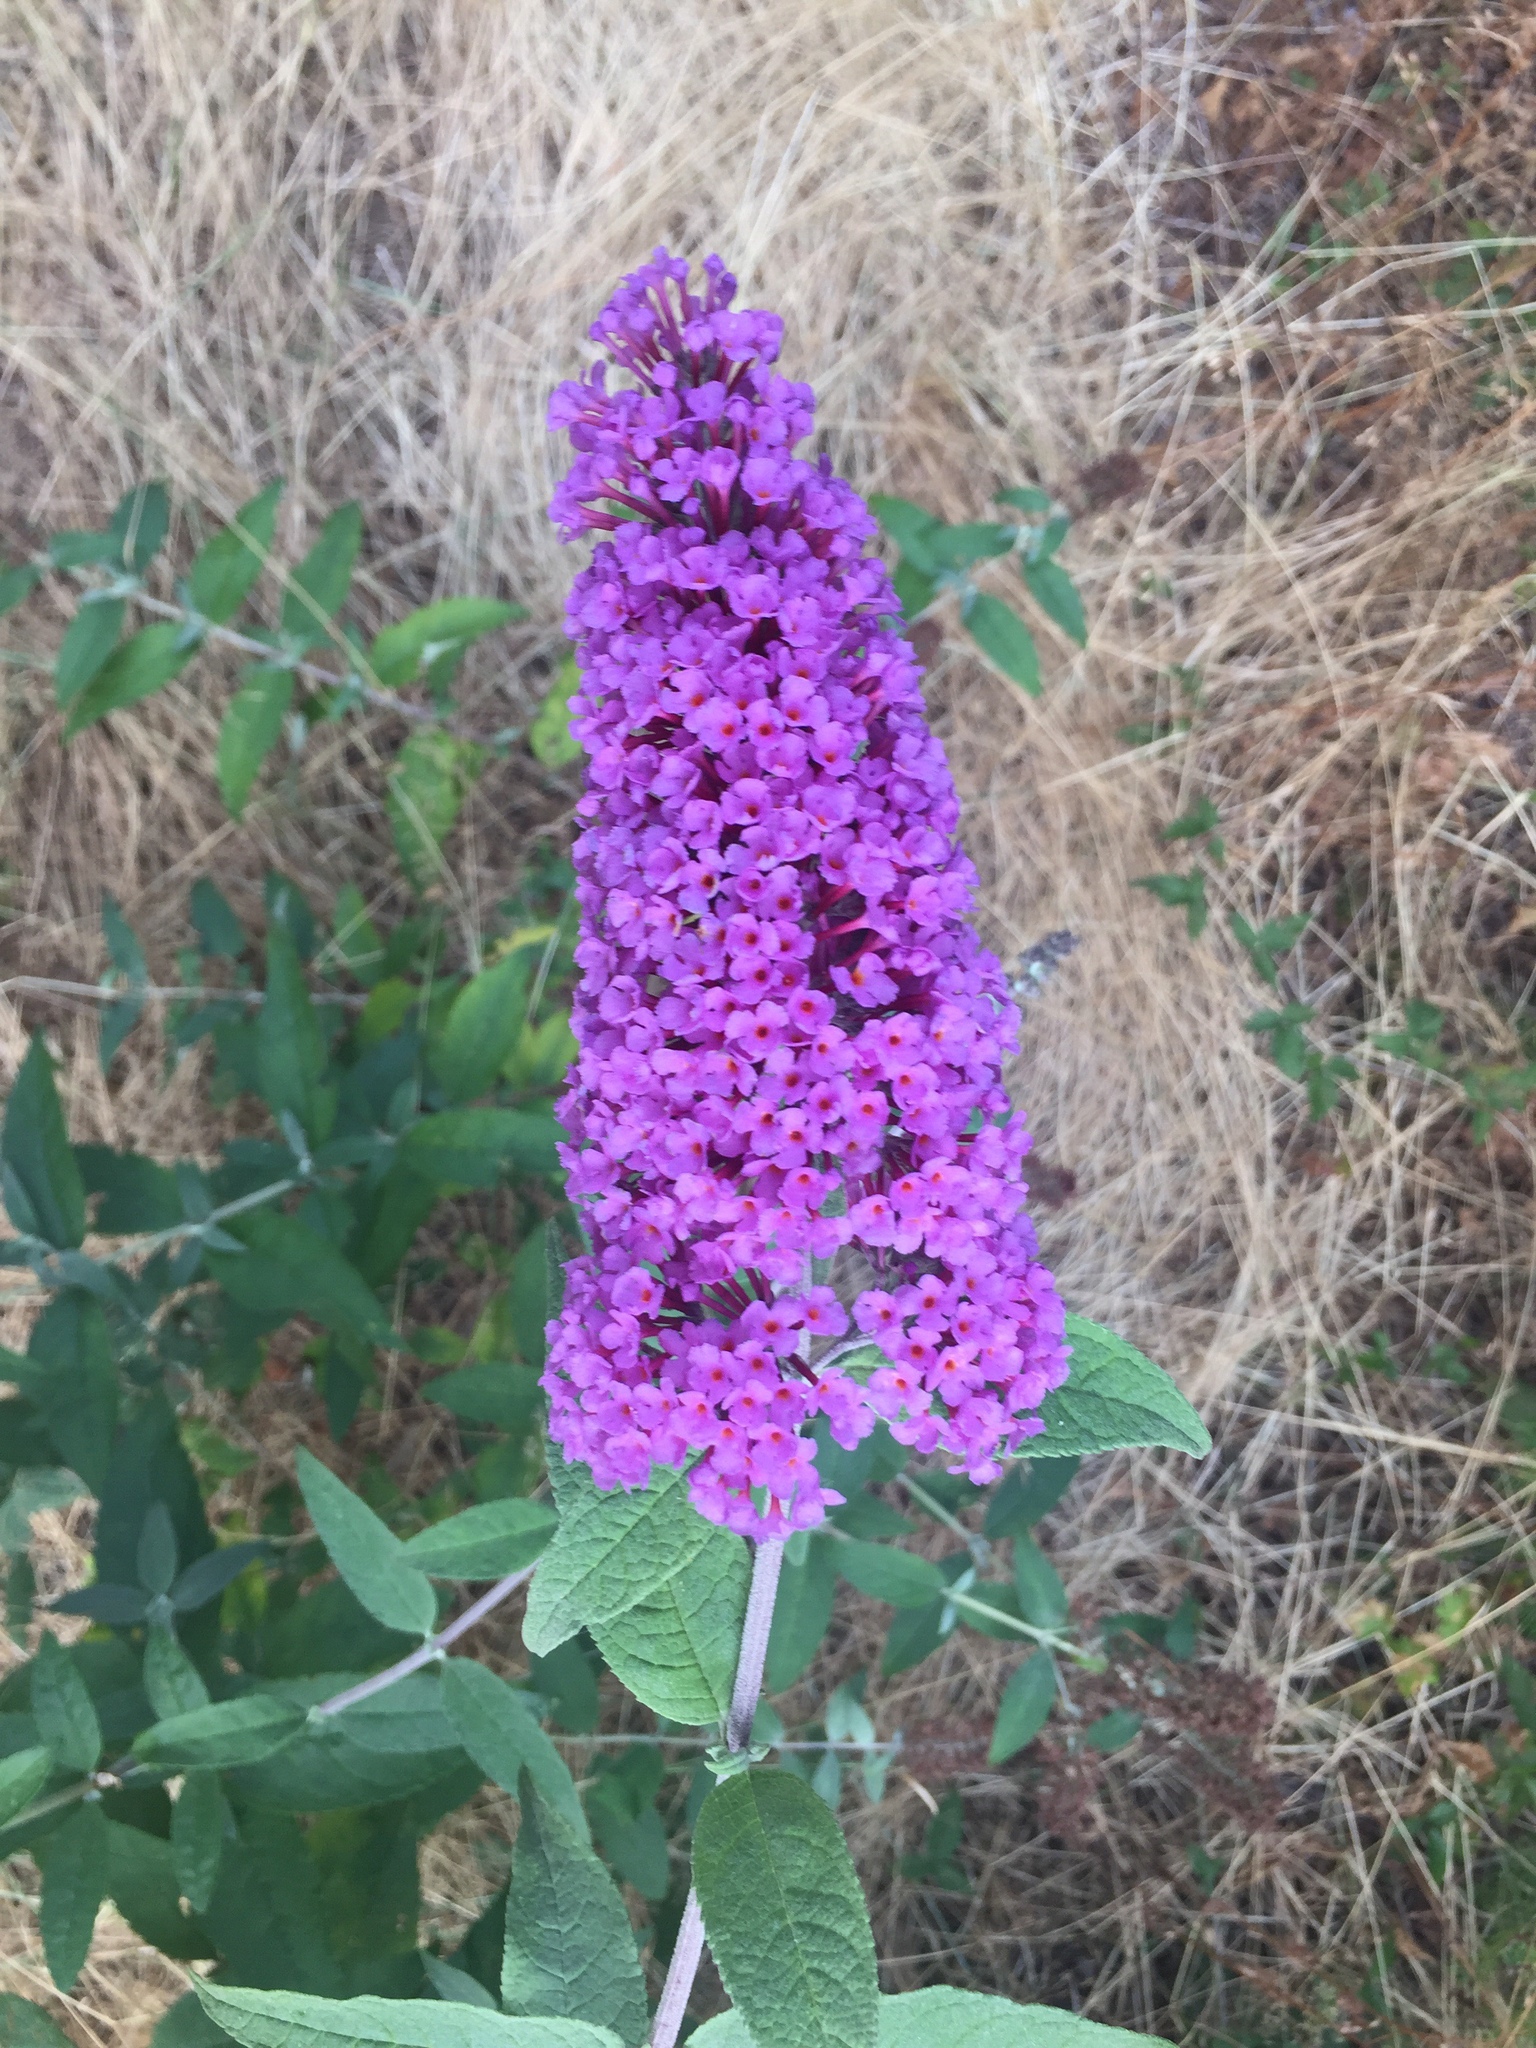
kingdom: Plantae
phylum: Tracheophyta
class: Magnoliopsida
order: Lamiales
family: Scrophulariaceae
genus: Buddleja
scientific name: Buddleja davidii
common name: Butterfly-bush
